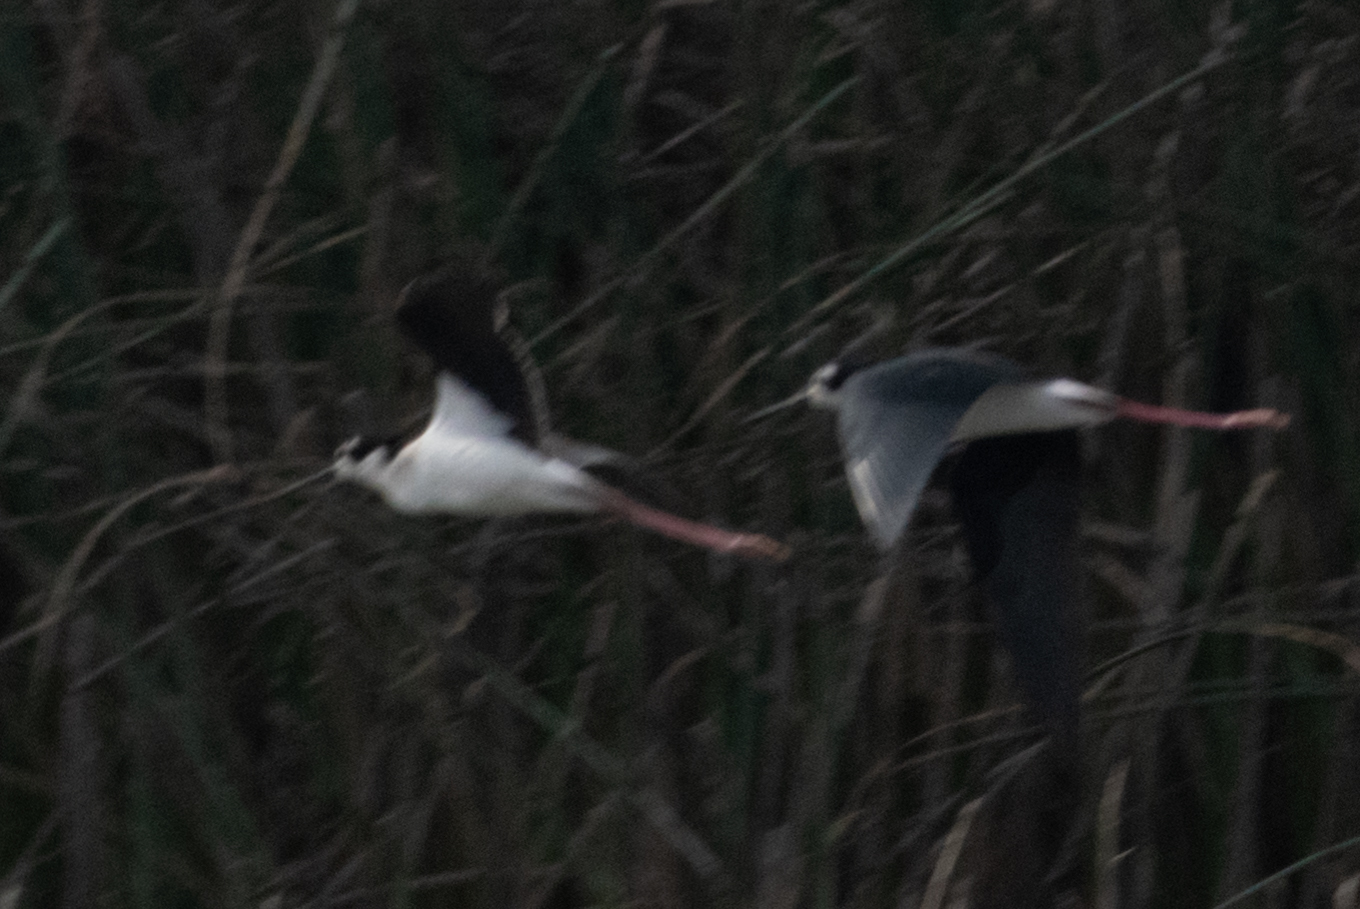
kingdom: Animalia
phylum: Chordata
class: Aves
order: Charadriiformes
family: Recurvirostridae
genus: Himantopus
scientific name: Himantopus mexicanus
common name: Black-necked stilt
